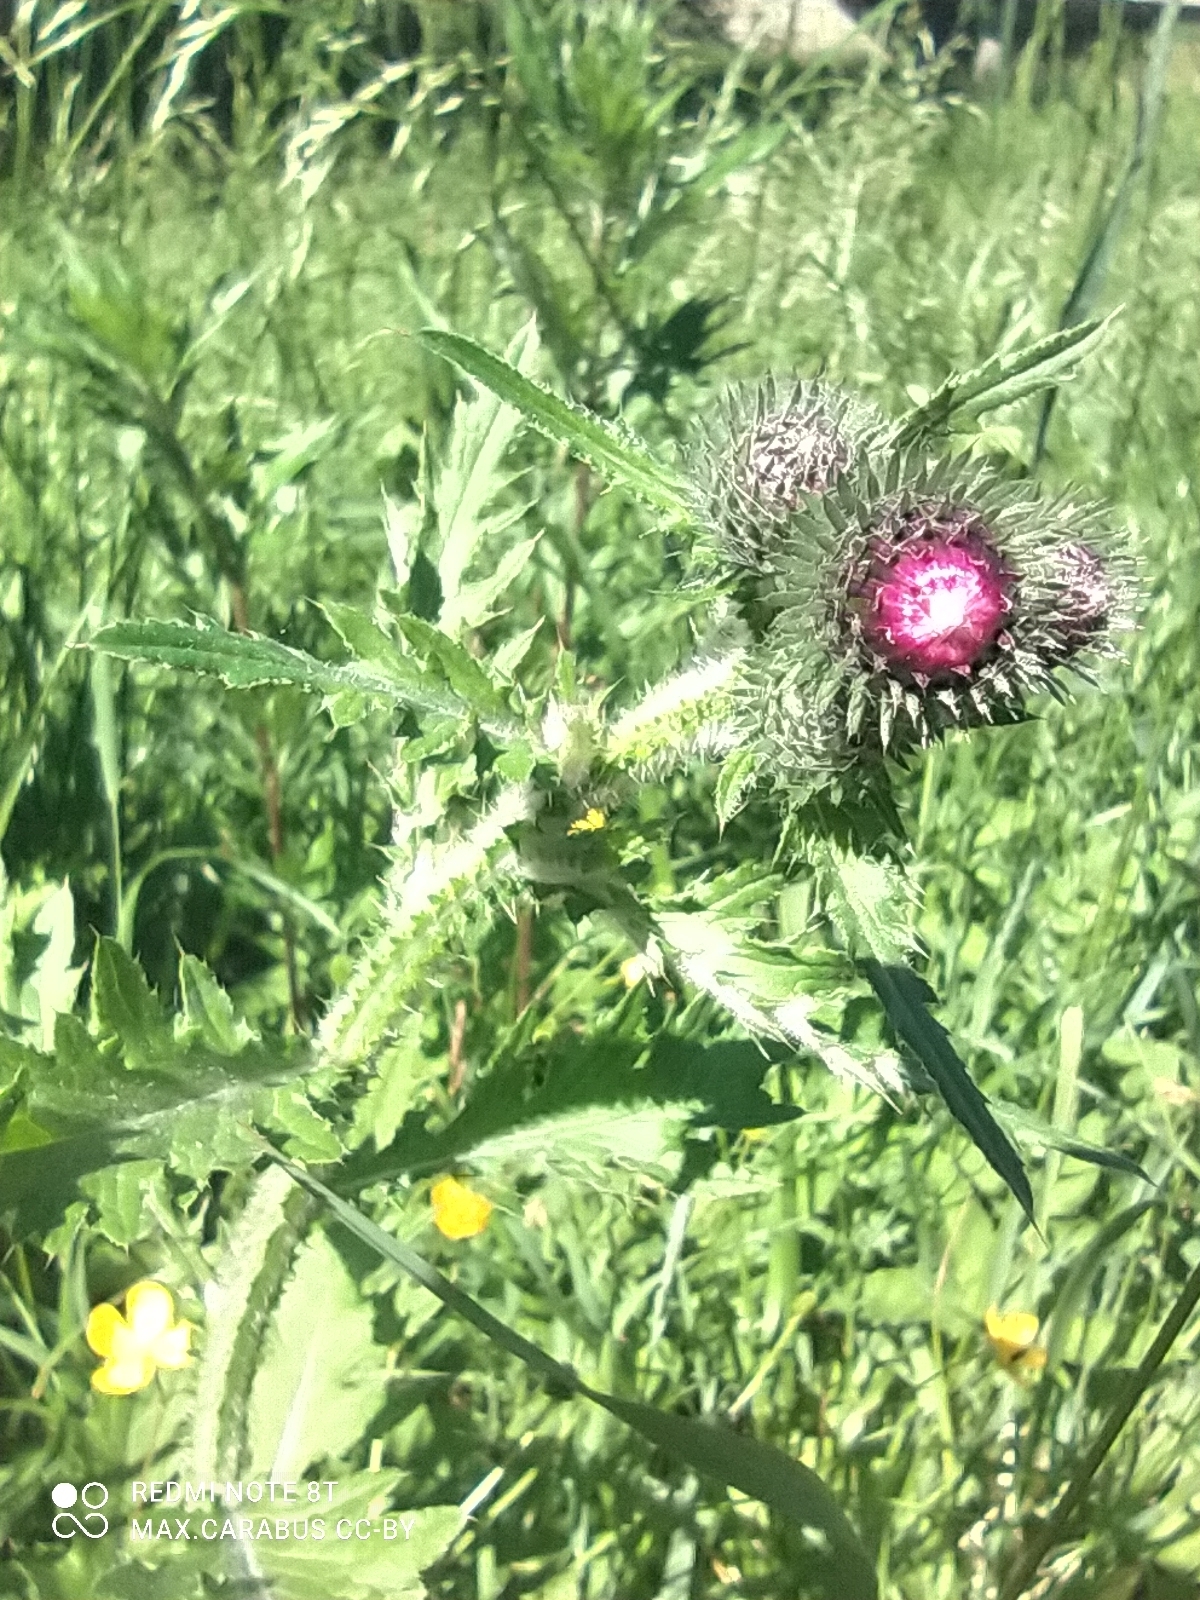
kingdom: Plantae
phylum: Tracheophyta
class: Magnoliopsida
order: Asterales
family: Asteraceae
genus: Carduus
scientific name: Carduus crispus
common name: Welted thistle
